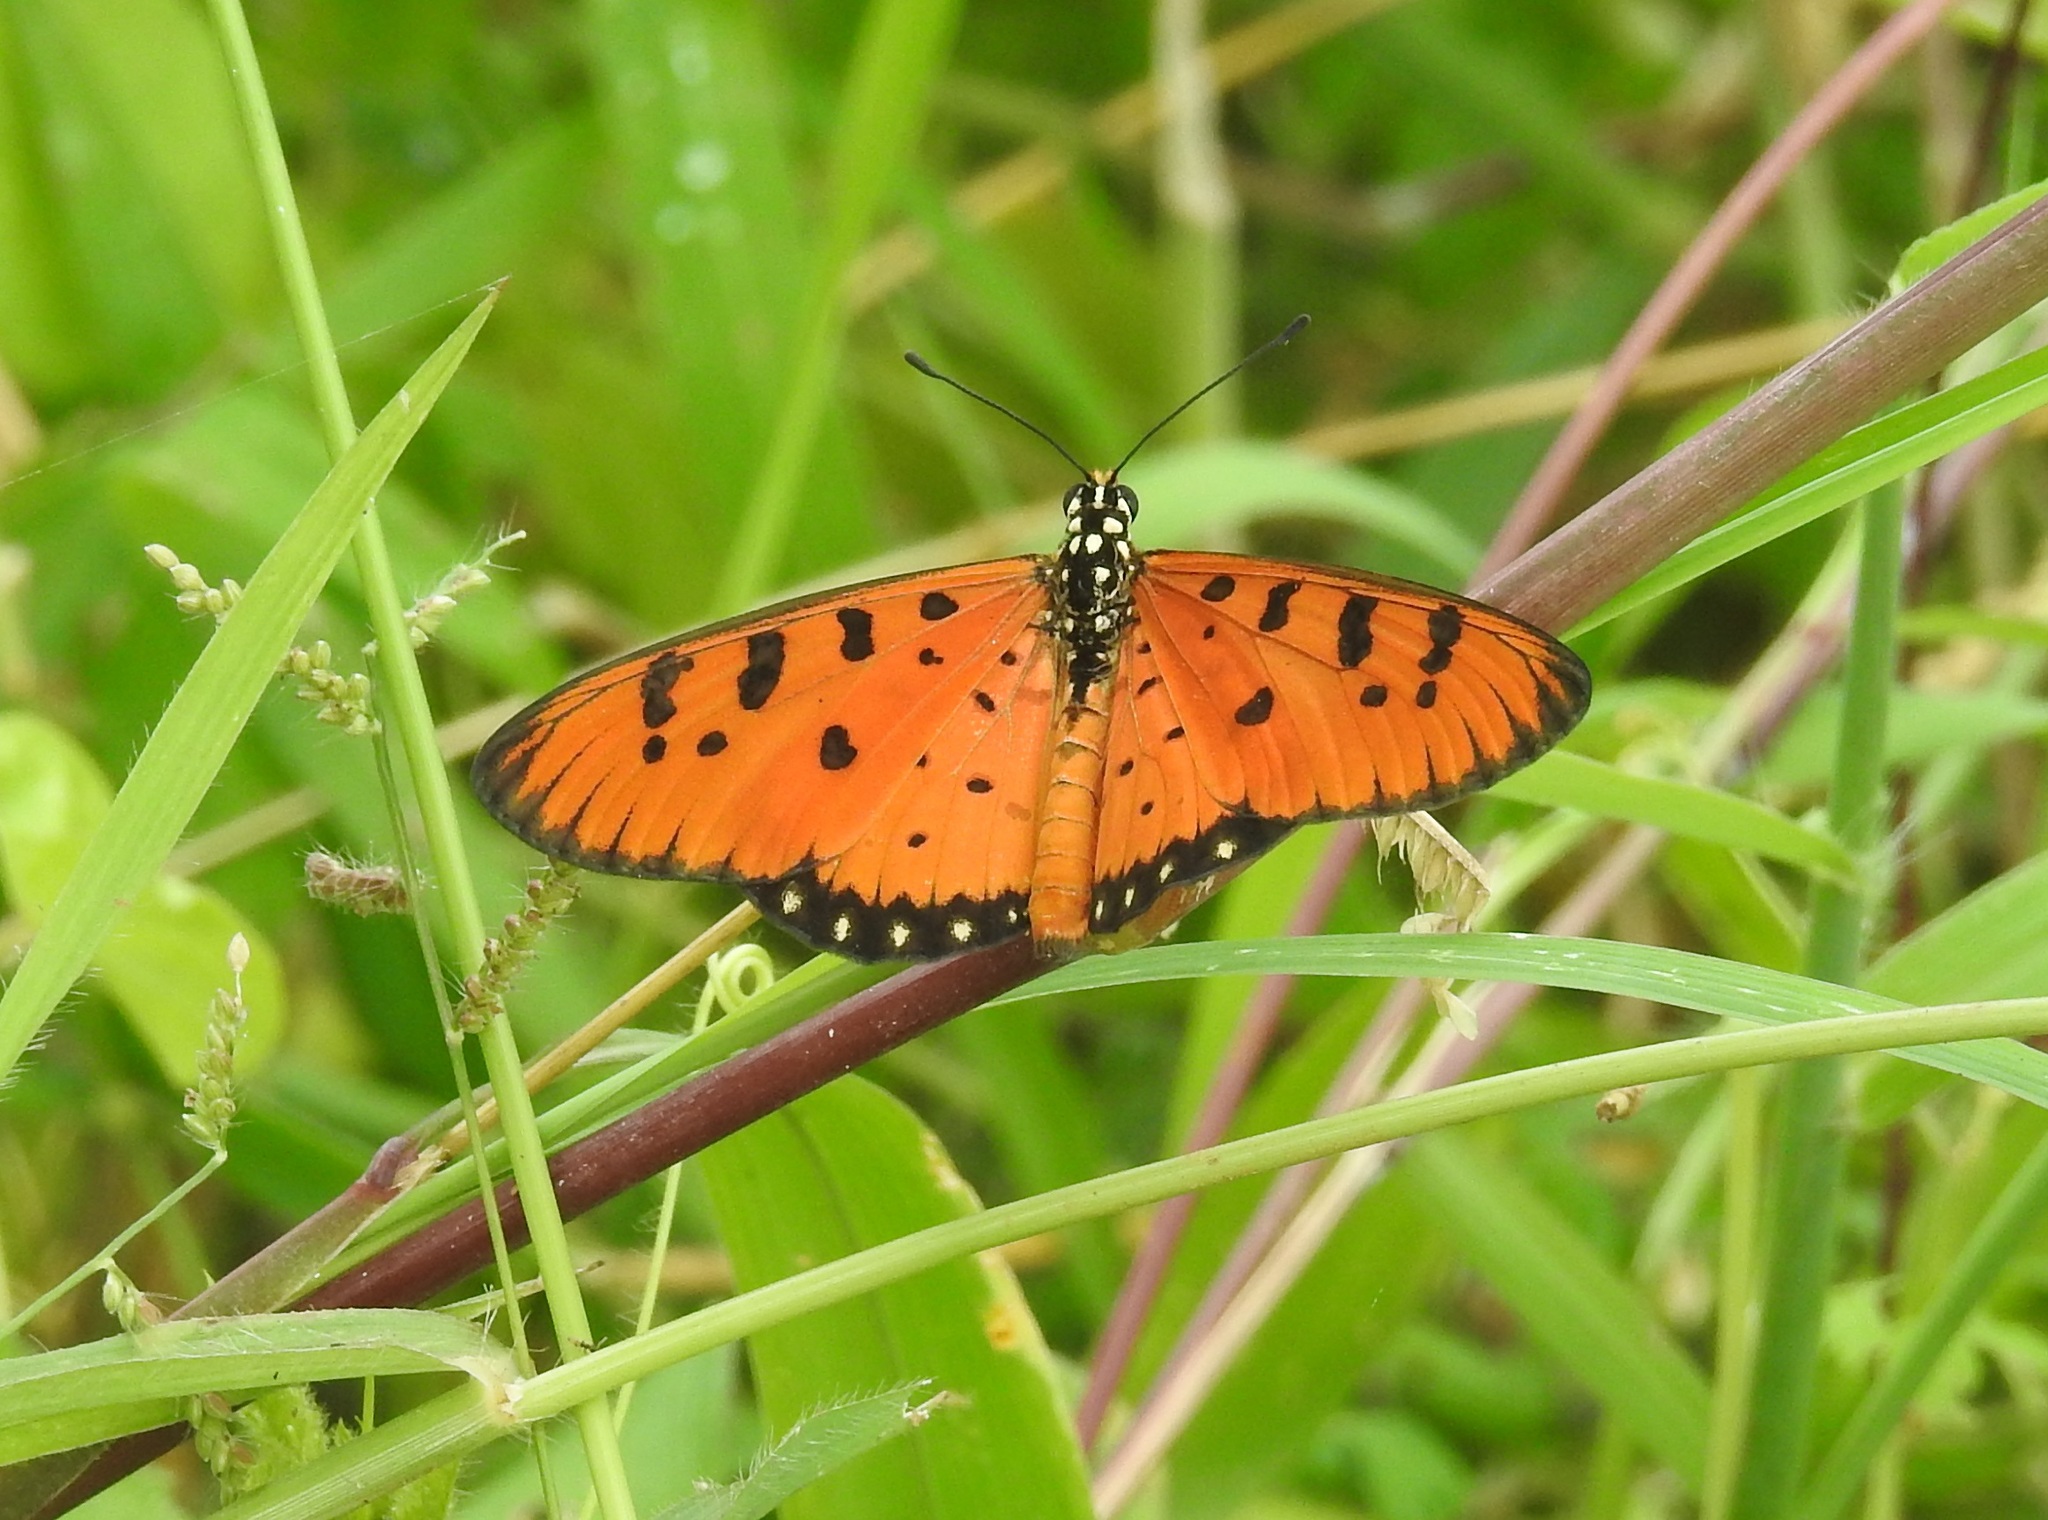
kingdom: Animalia
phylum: Arthropoda
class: Insecta
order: Lepidoptera
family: Nymphalidae
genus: Acraea
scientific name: Acraea terpsicore
